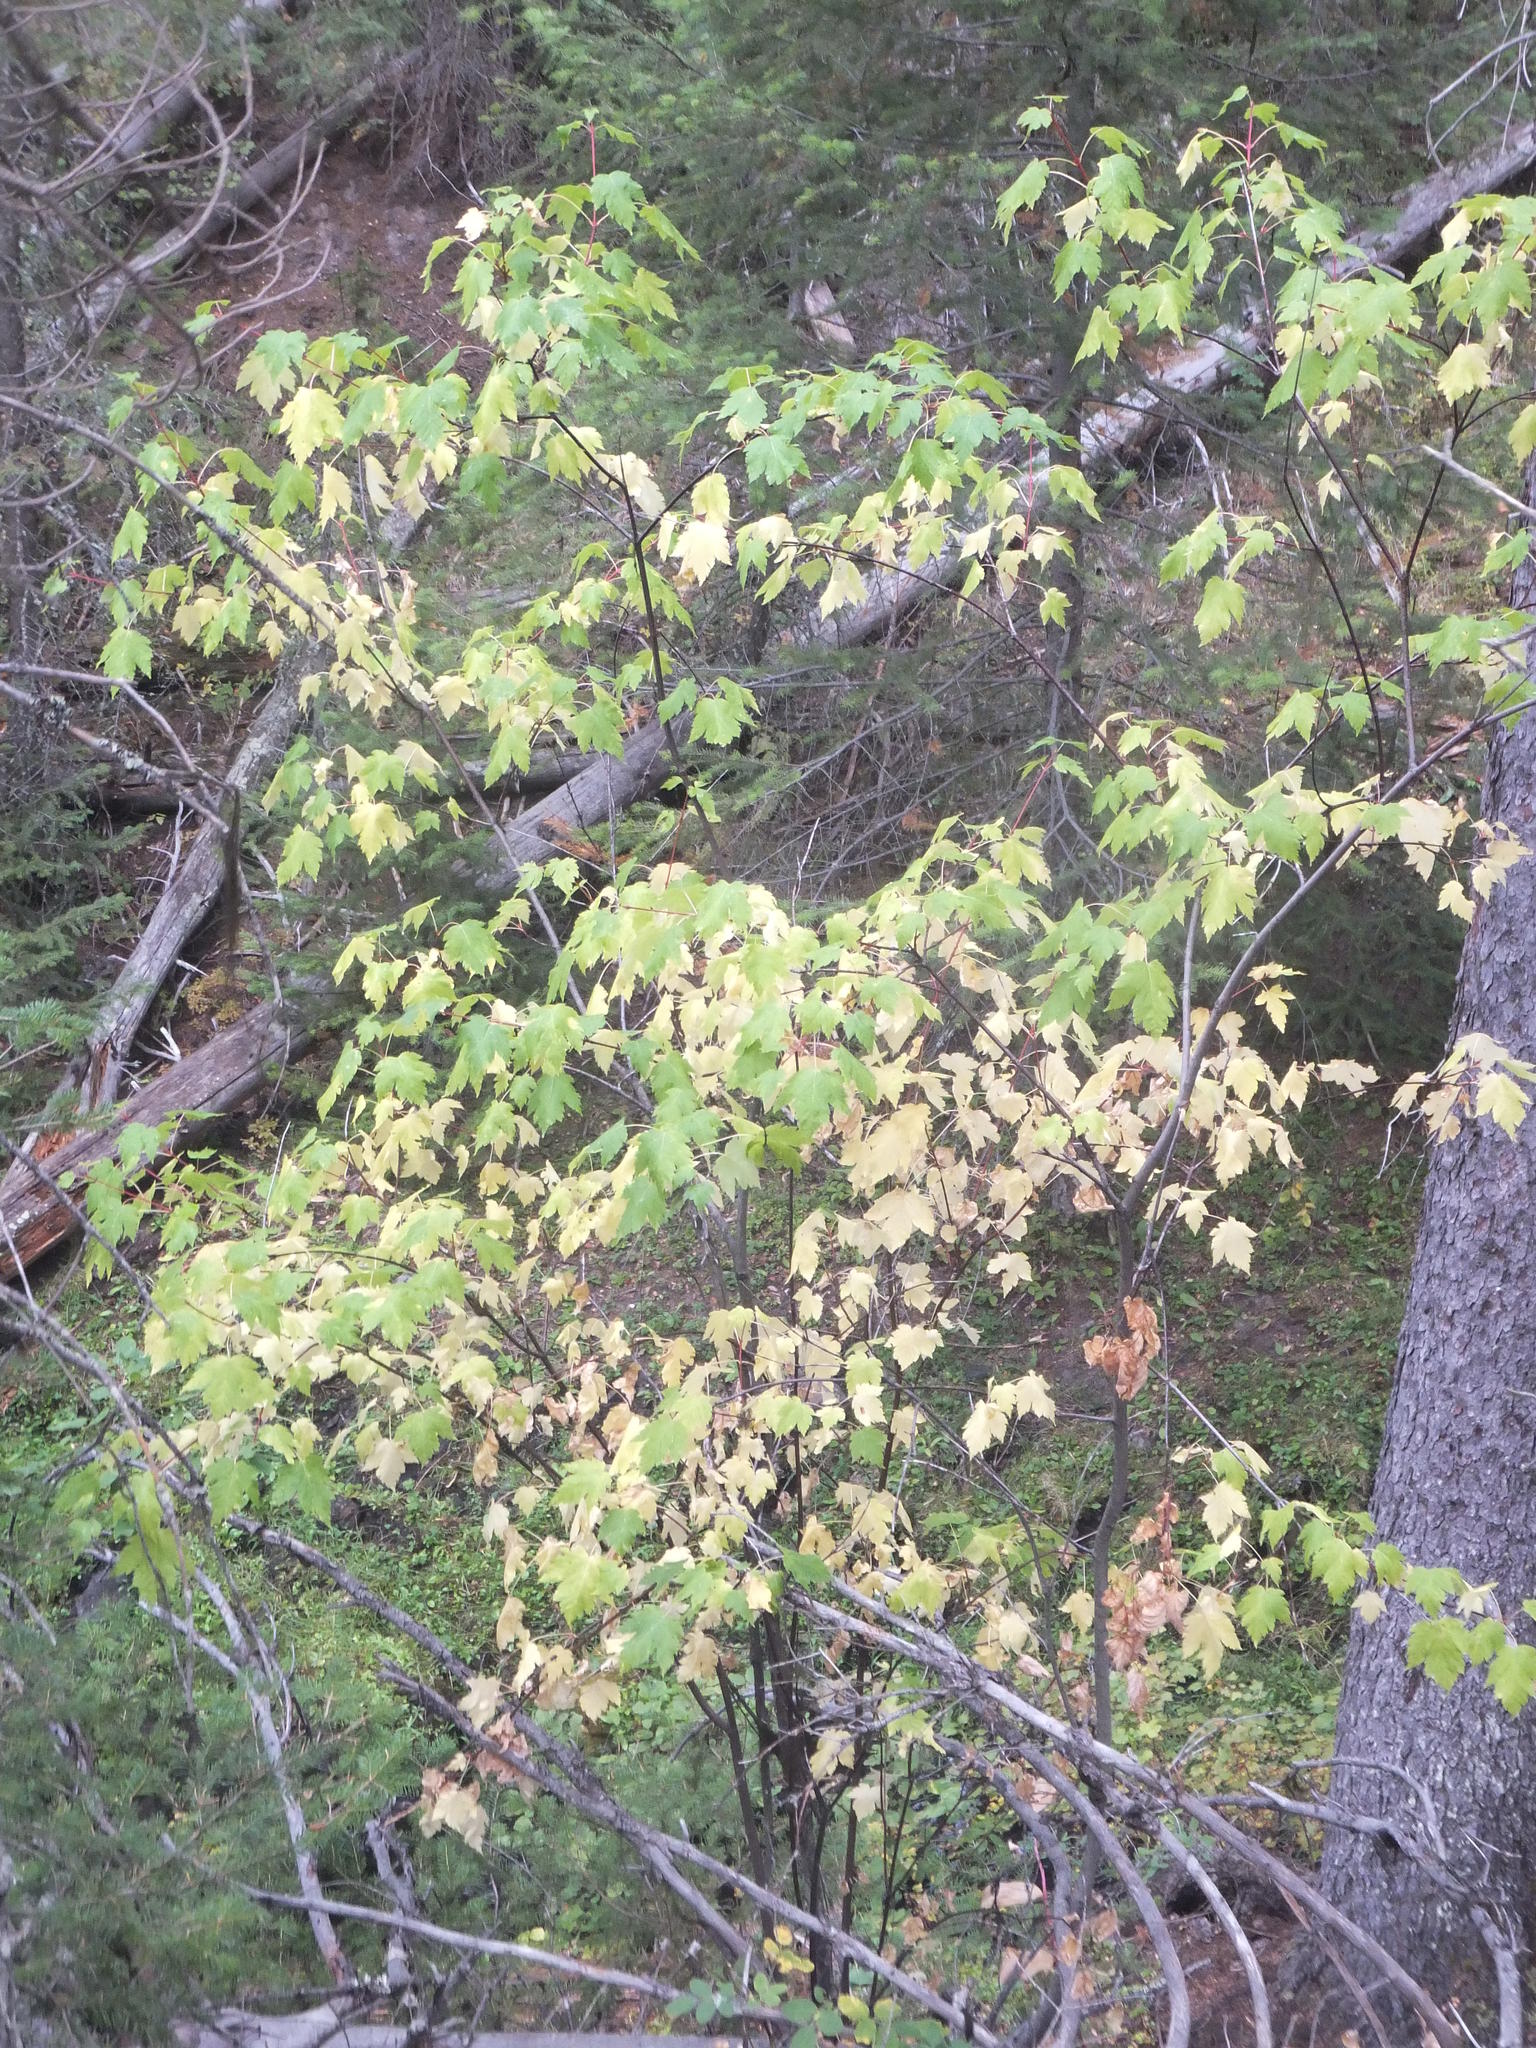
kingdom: Plantae
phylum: Tracheophyta
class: Magnoliopsida
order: Sapindales
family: Sapindaceae
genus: Acer
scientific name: Acer glabrum
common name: Rocky mountain maple
